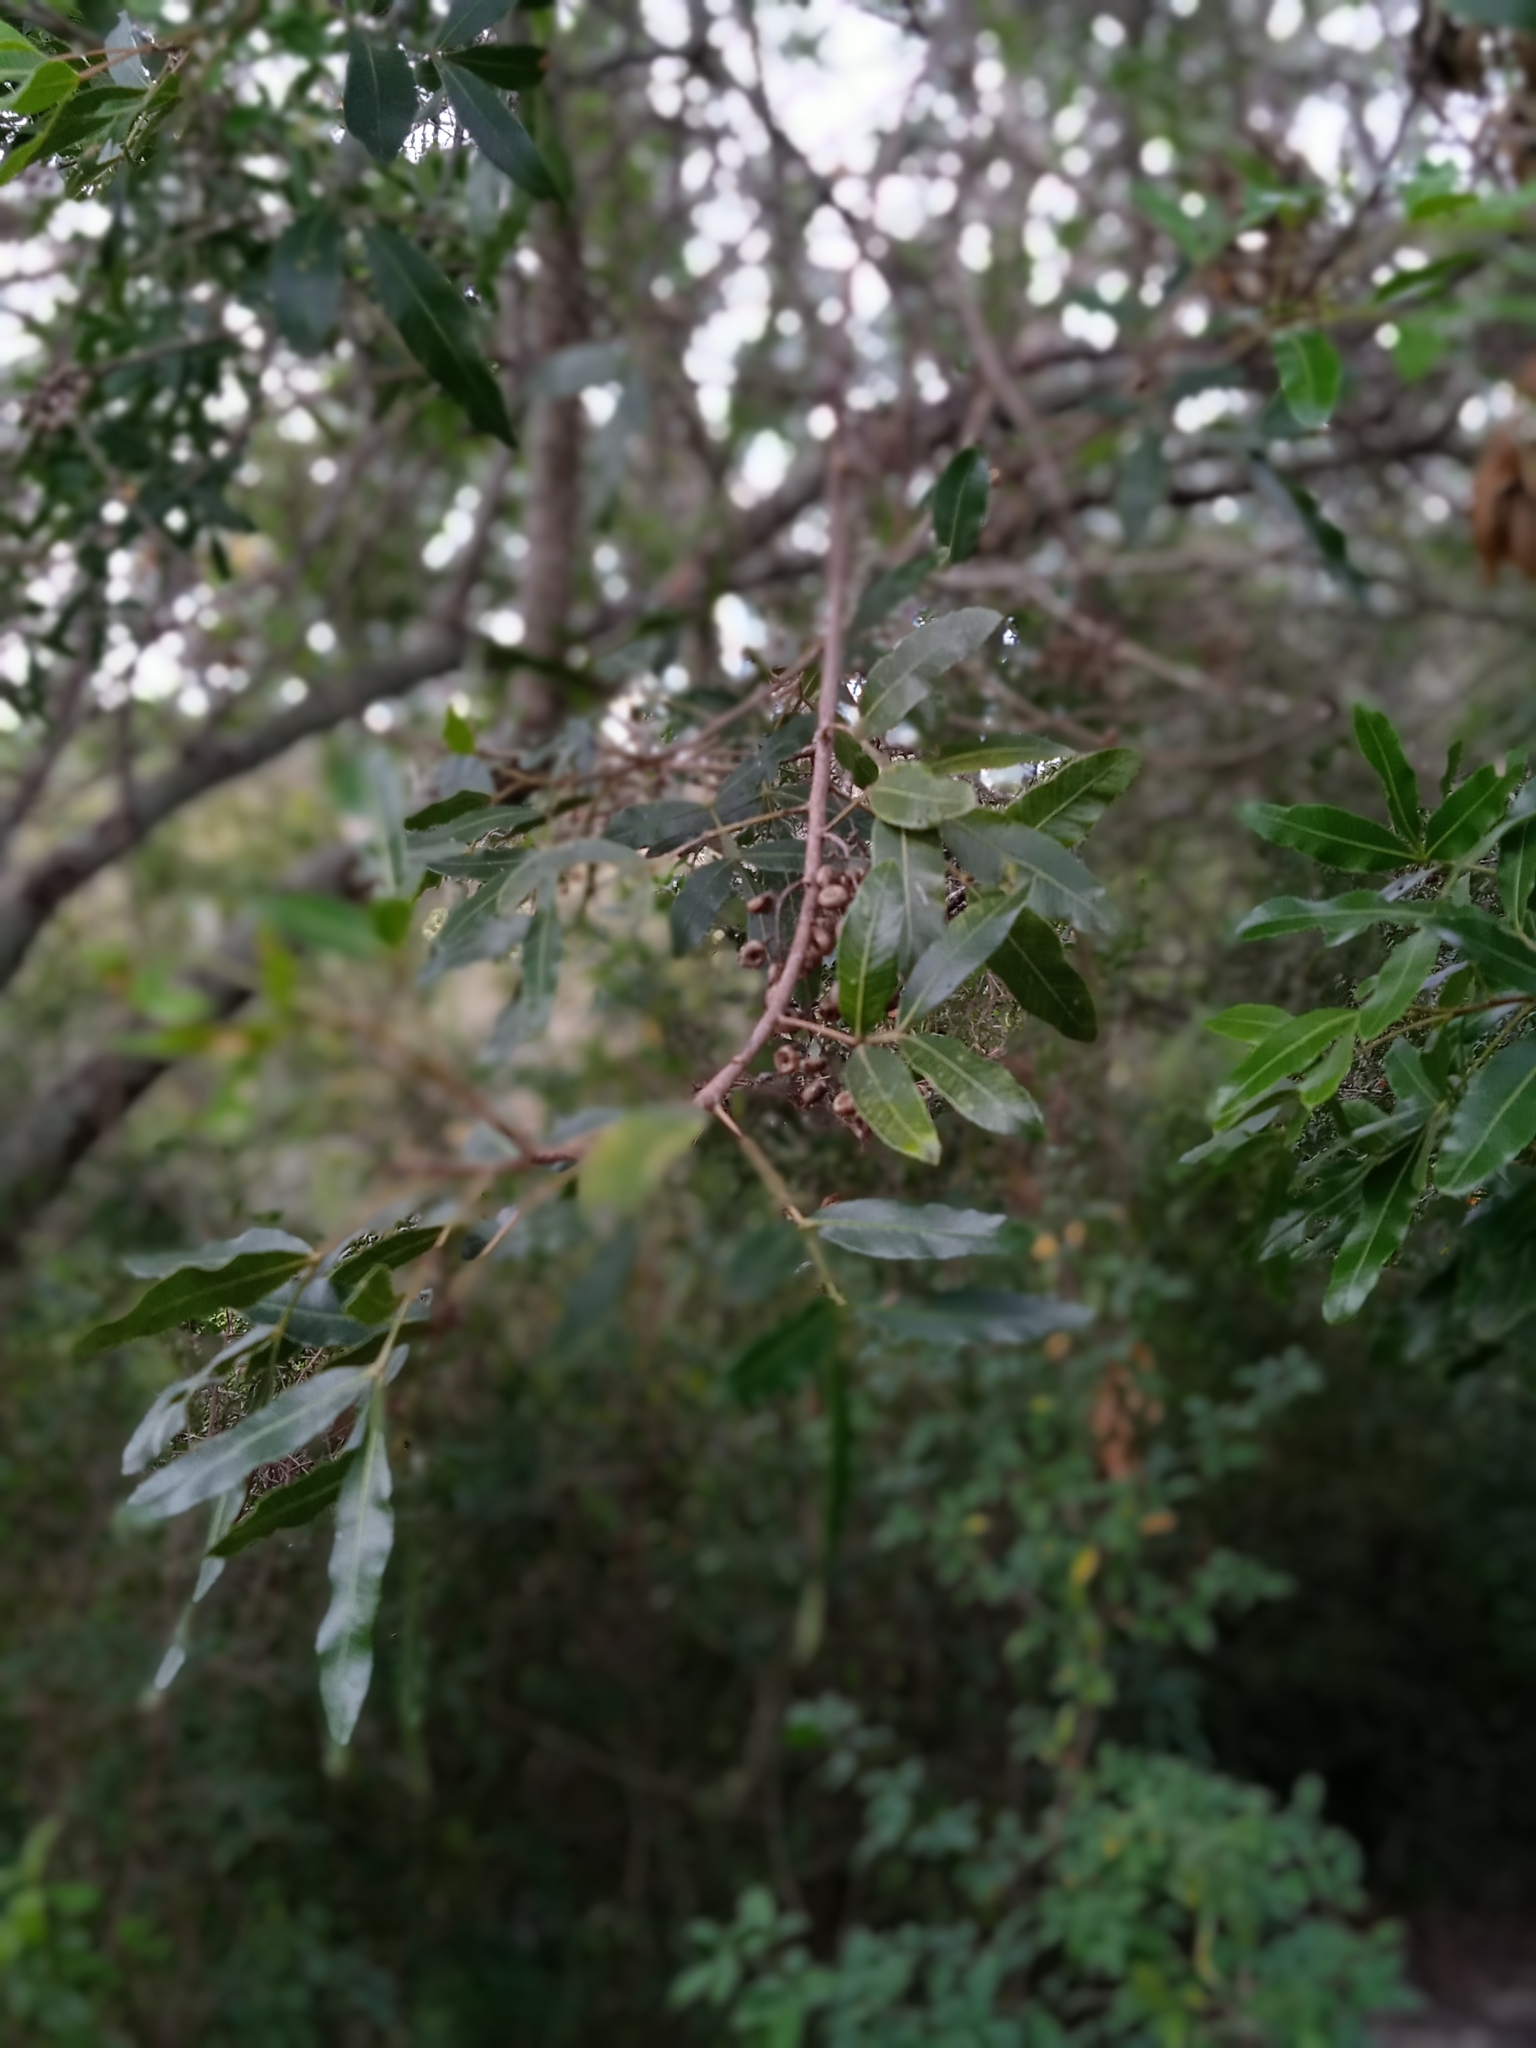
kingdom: Plantae
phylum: Tracheophyta
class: Magnoliopsida
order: Sapindales
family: Anacardiaceae
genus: Lithraea
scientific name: Lithraea molleoides
